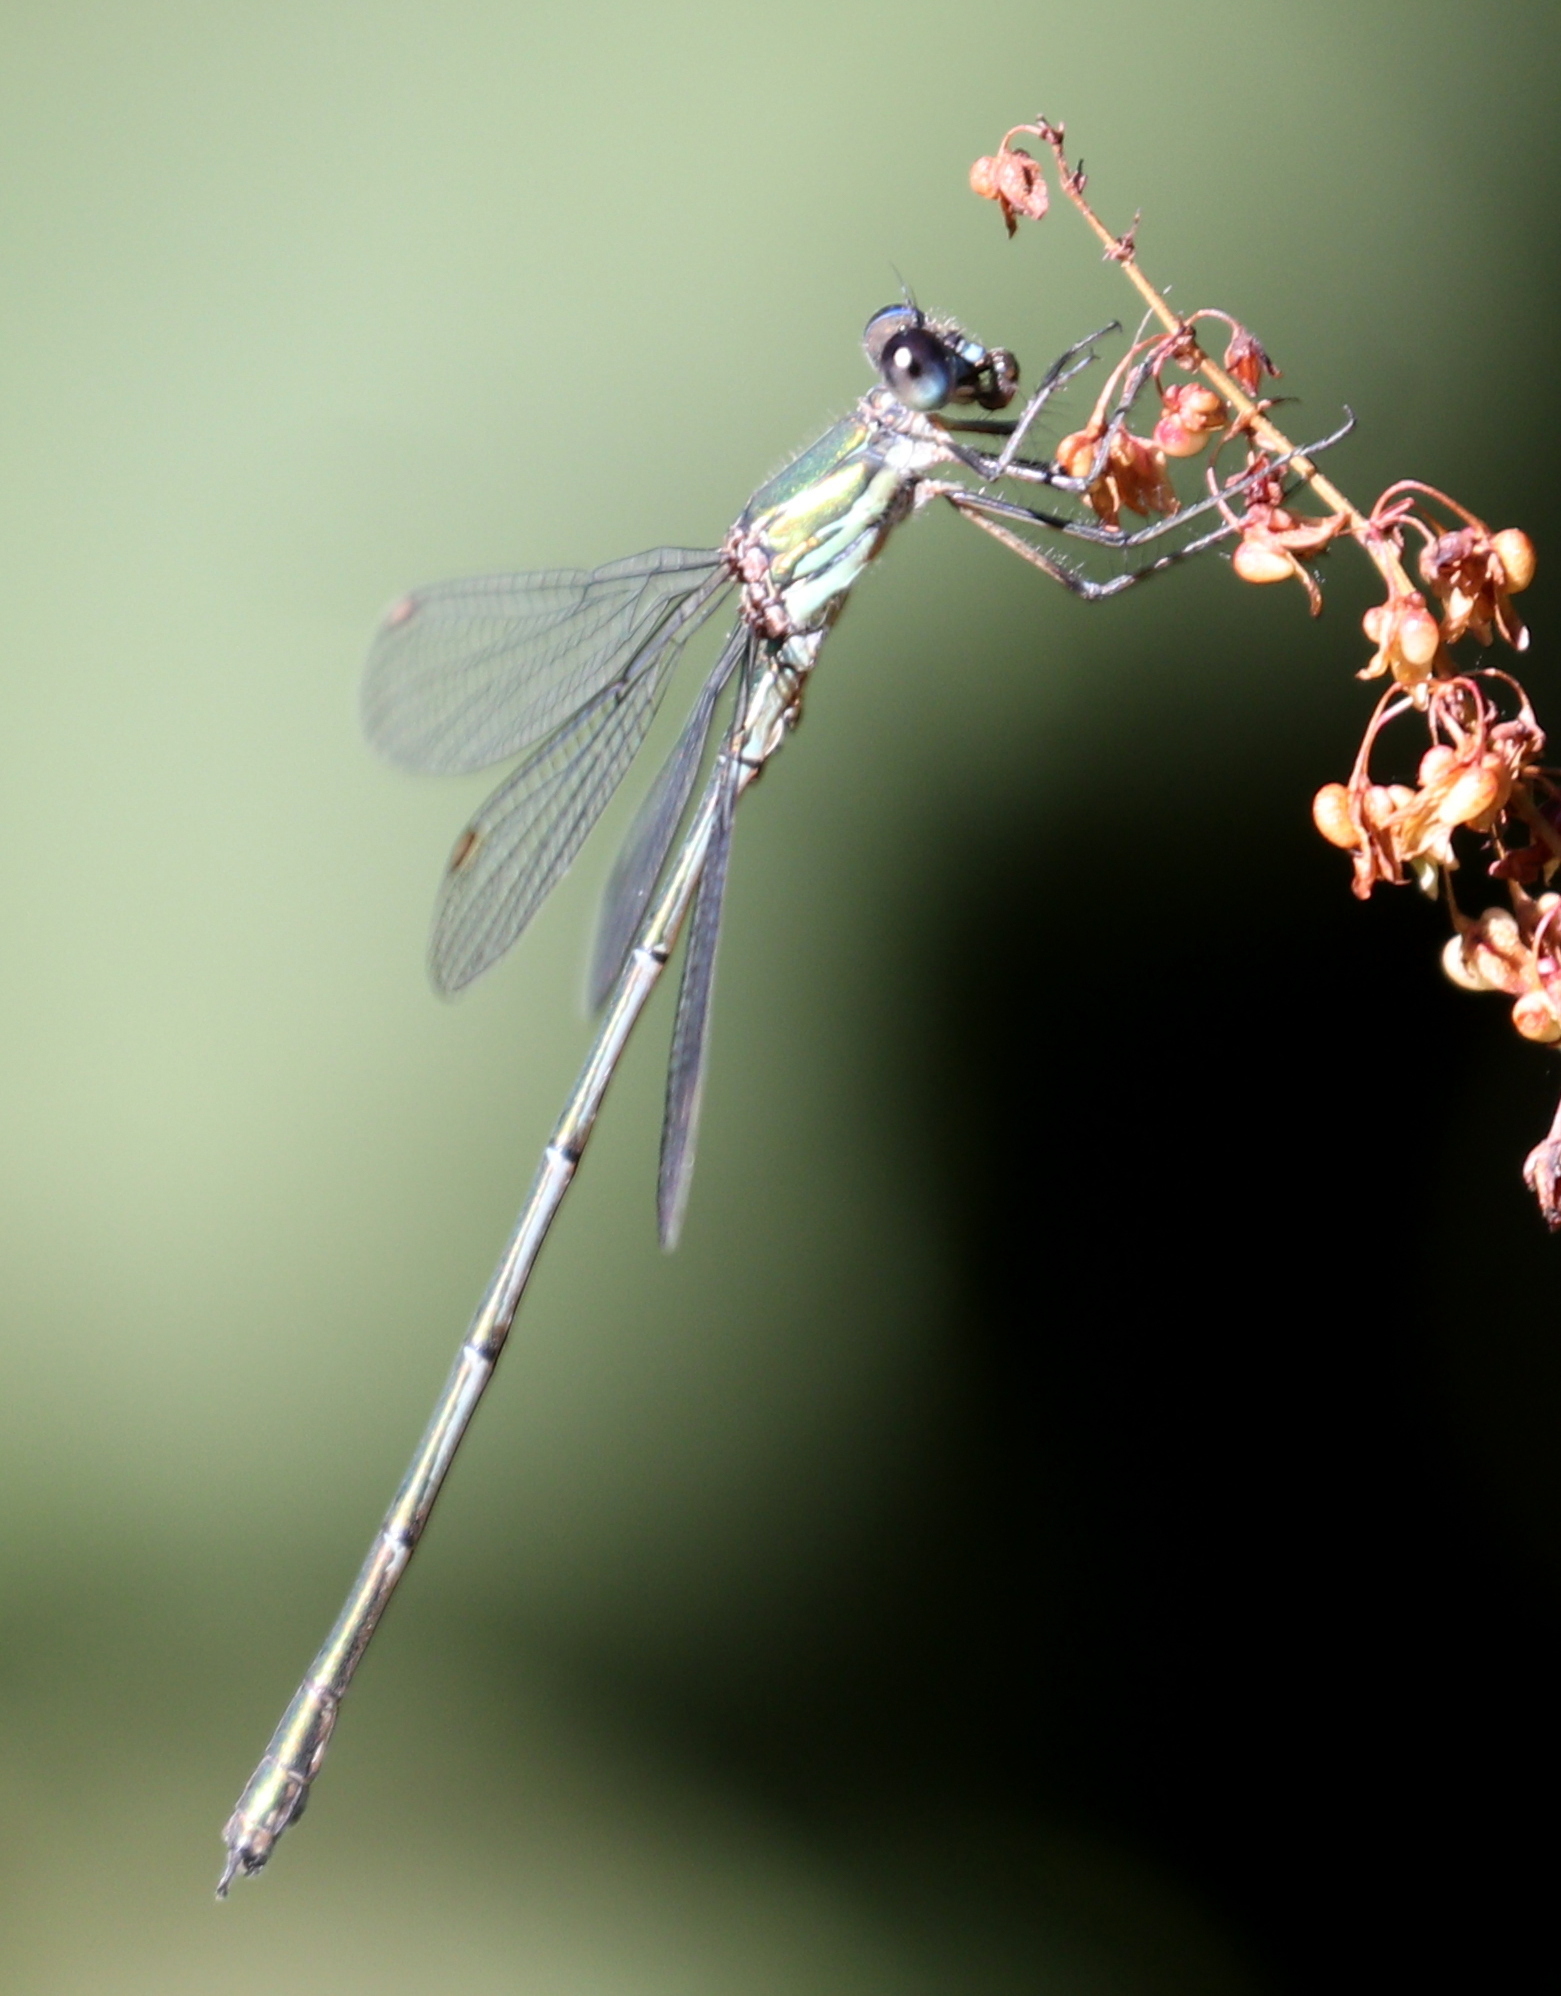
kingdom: Animalia
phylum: Arthropoda
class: Insecta
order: Odonata
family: Lestidae
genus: Chalcolestes
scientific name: Chalcolestes viridis
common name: Green emerald damselfly
